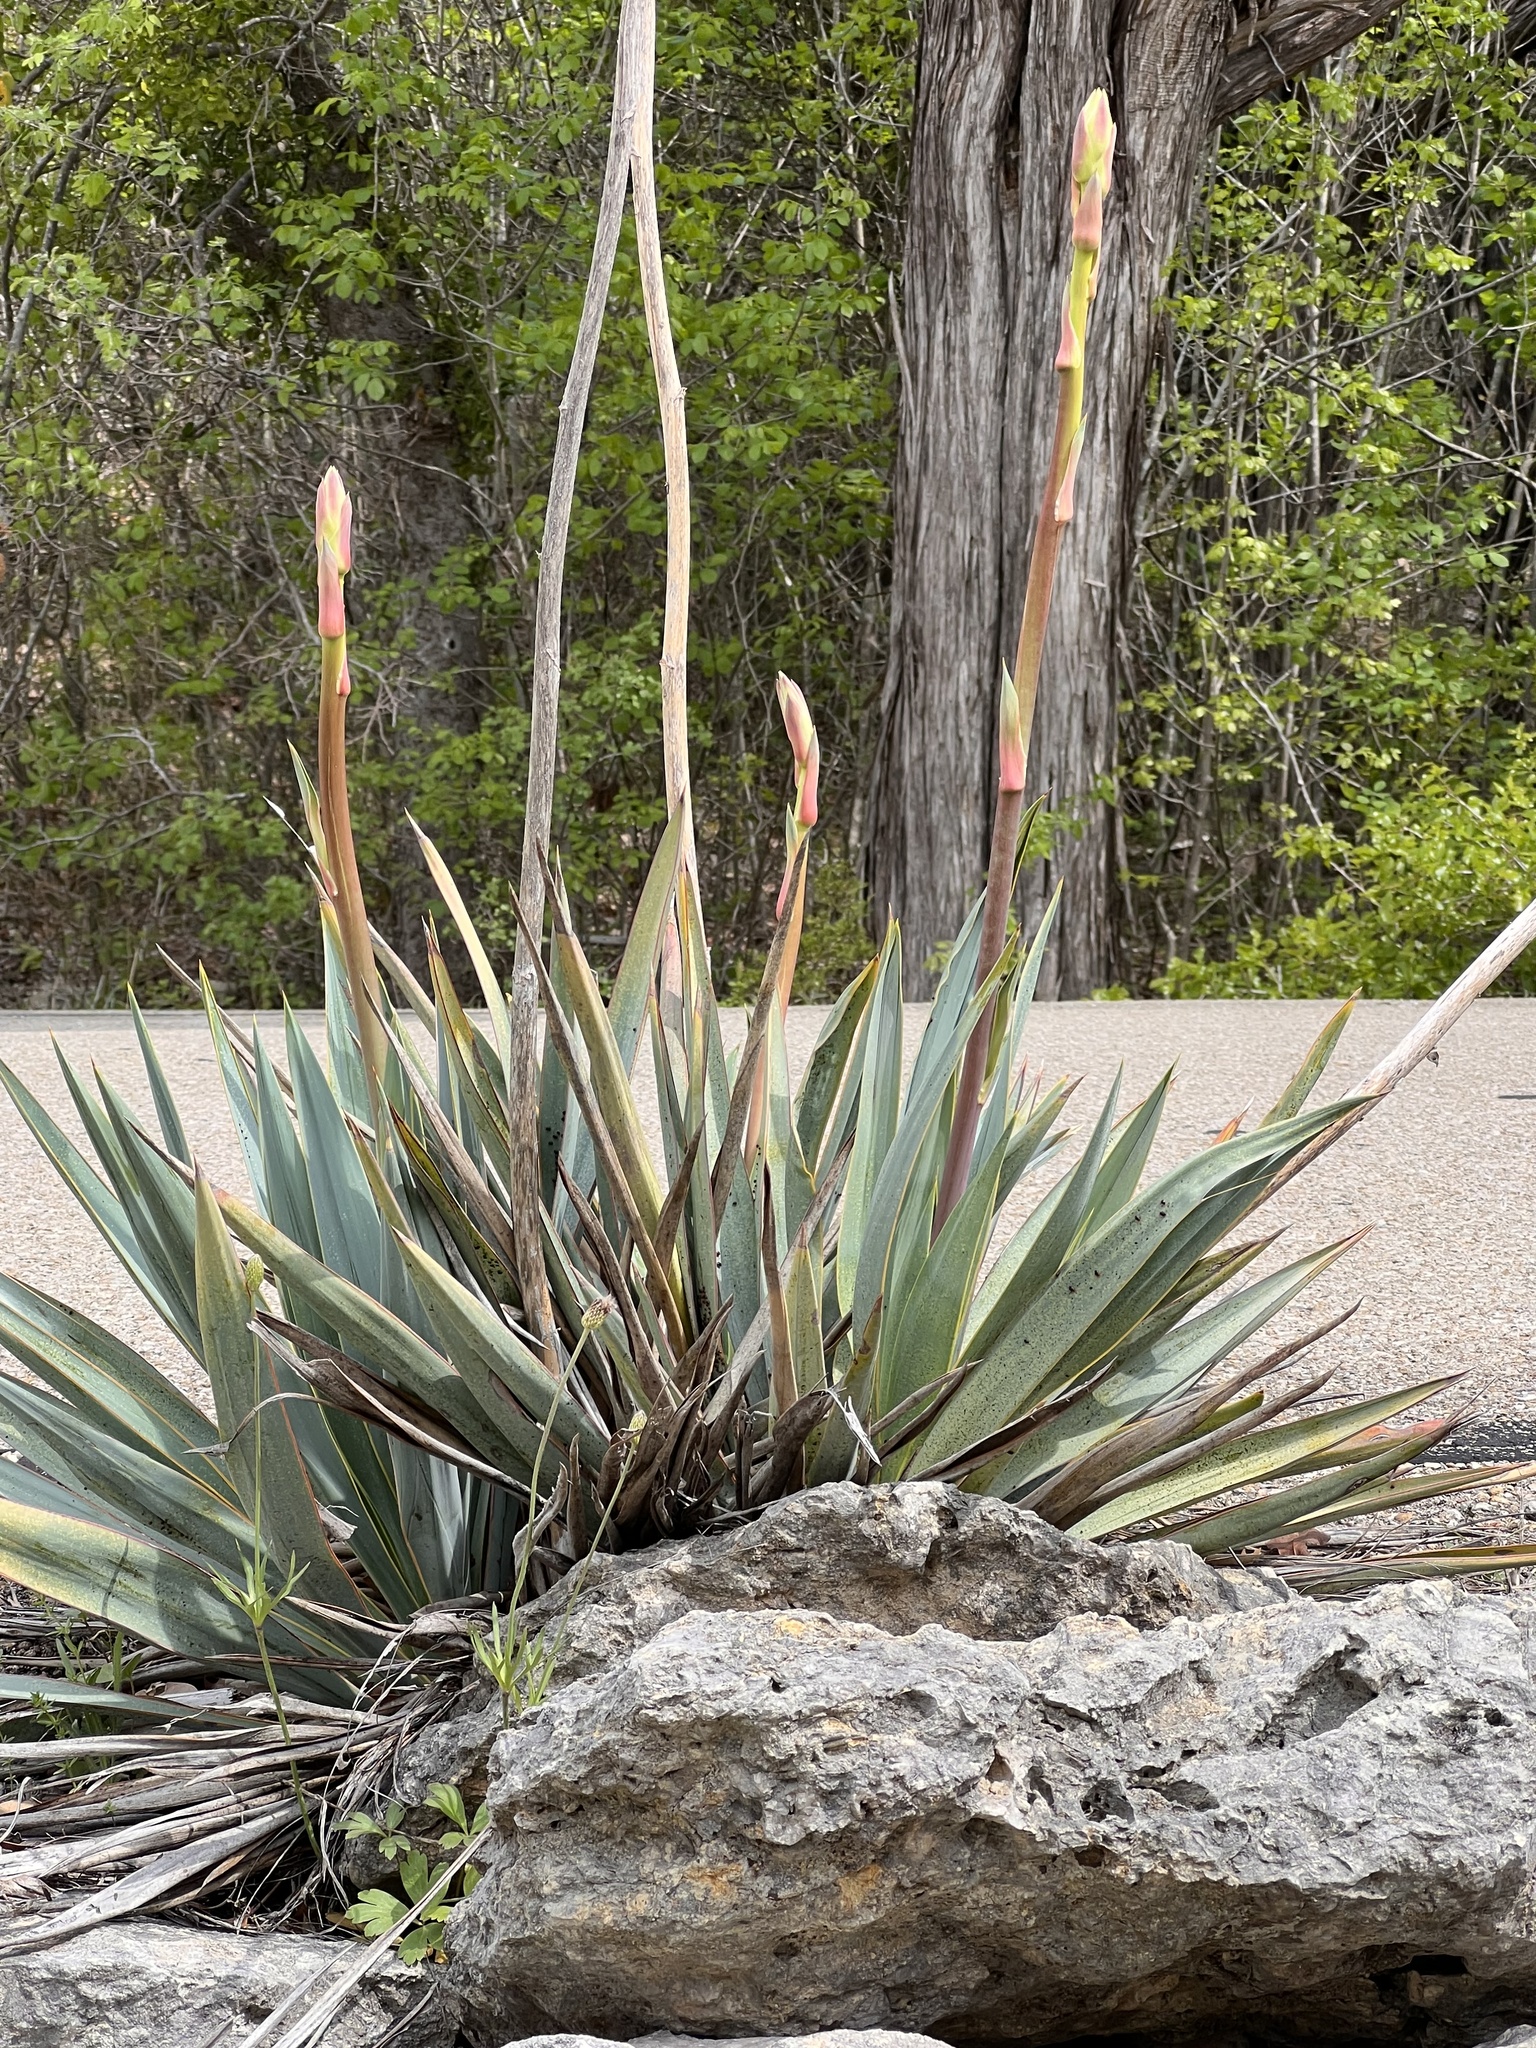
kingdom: Plantae
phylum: Tracheophyta
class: Liliopsida
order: Asparagales
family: Asparagaceae
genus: Yucca
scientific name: Yucca pallida
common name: Pale leaf yucca
